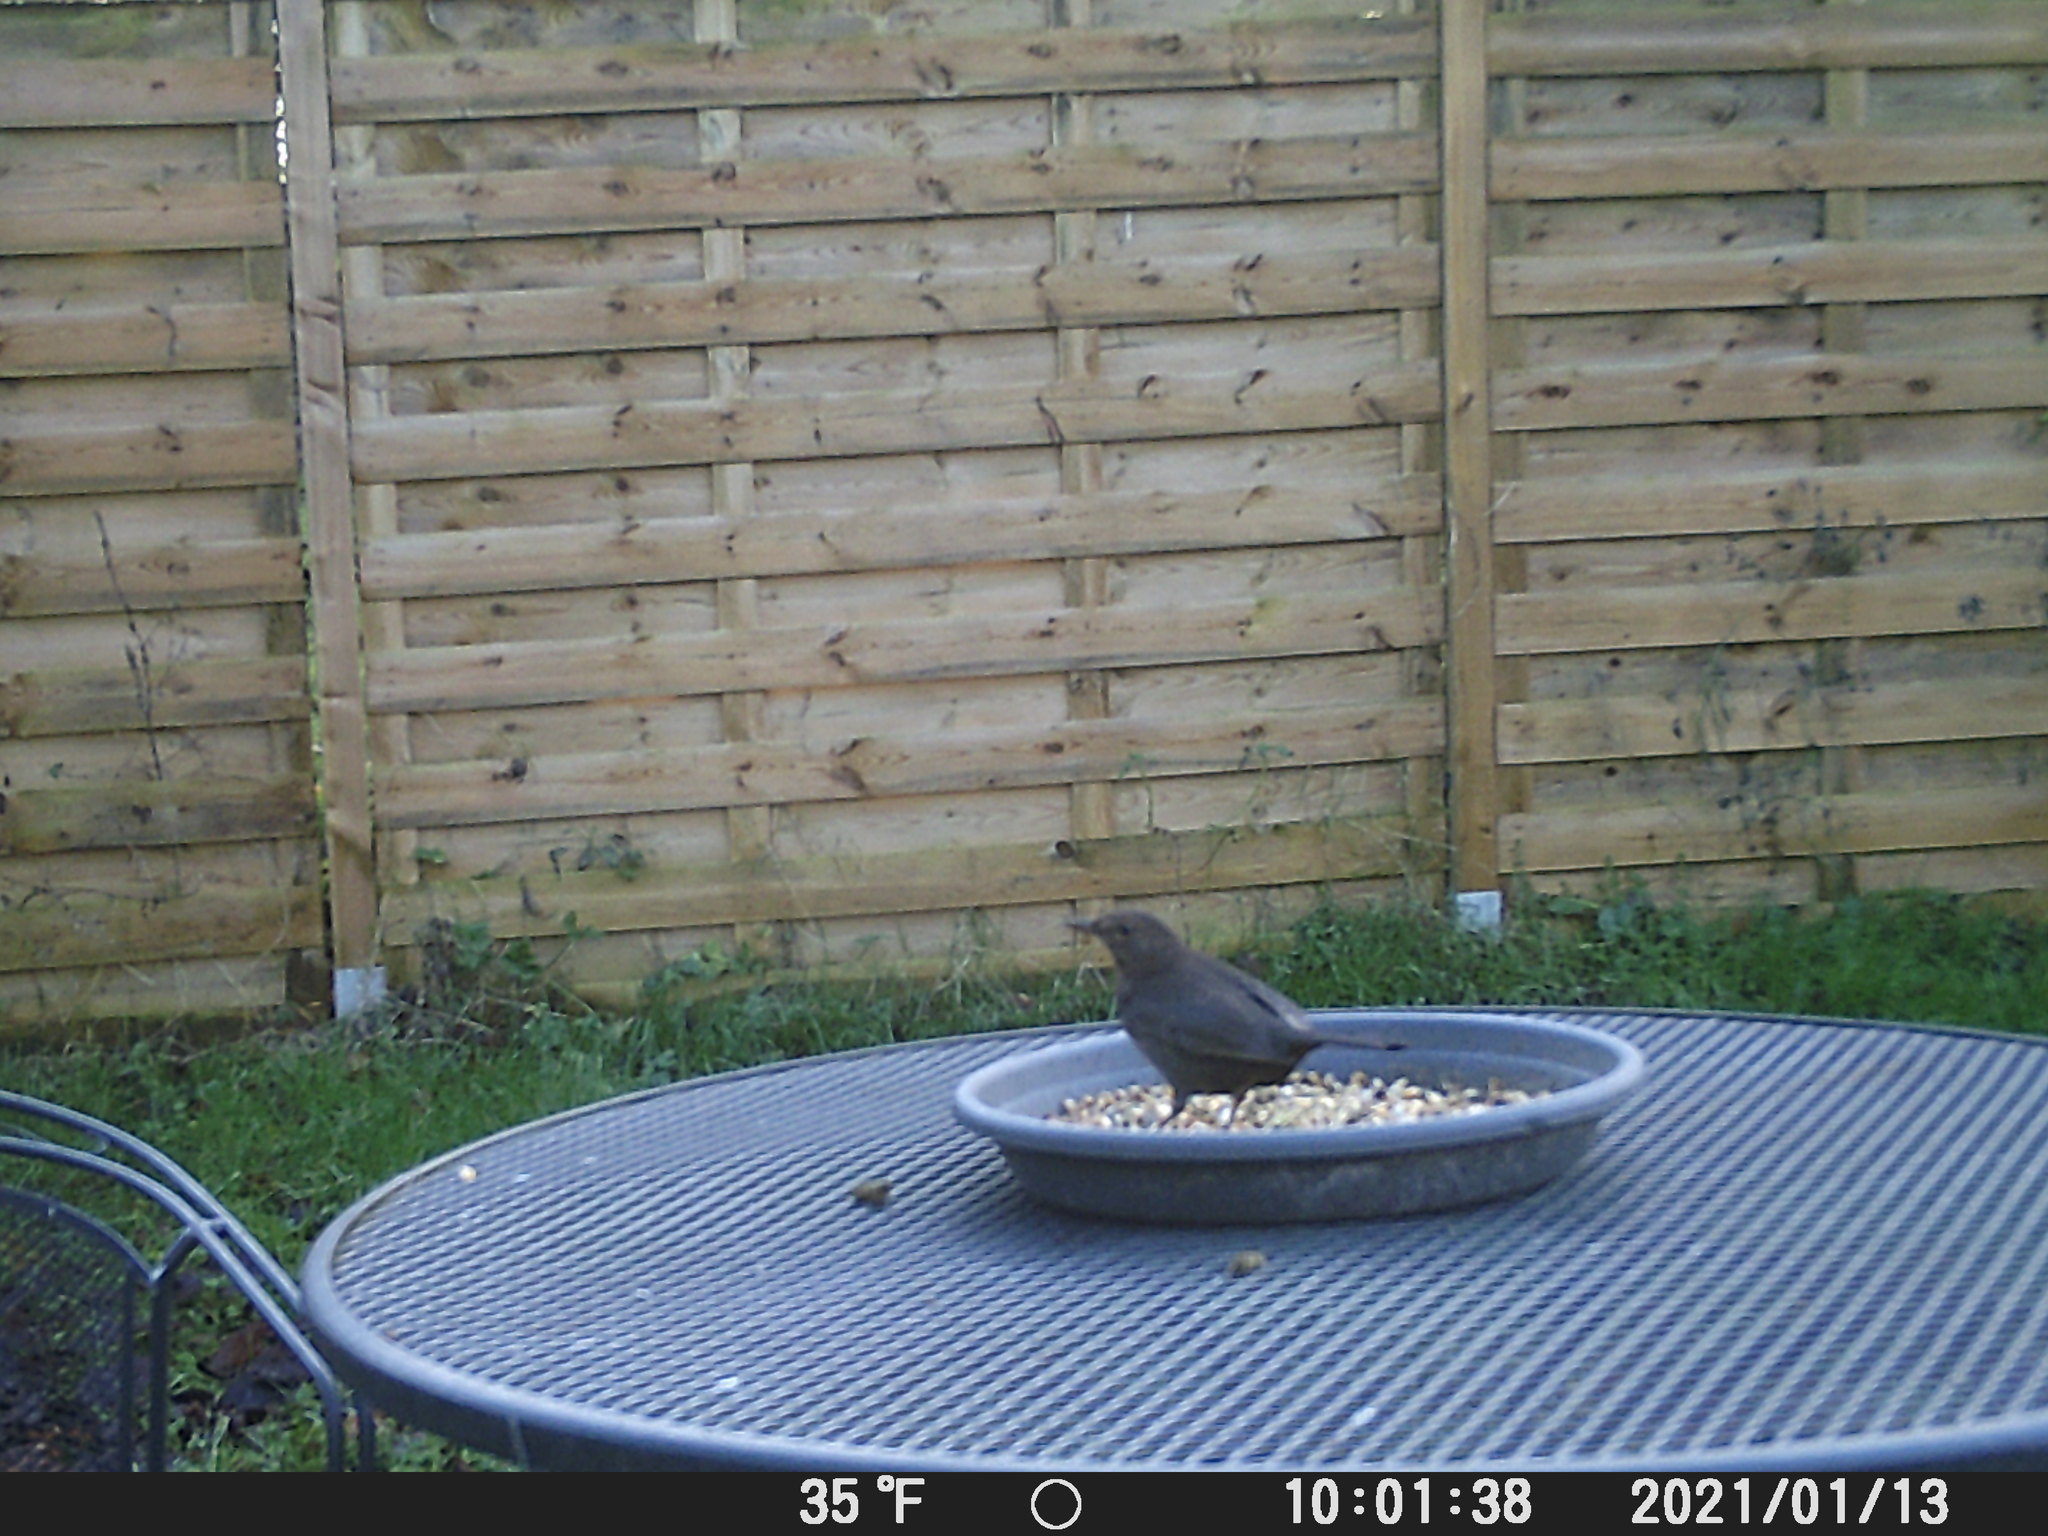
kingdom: Animalia
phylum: Chordata
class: Aves
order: Passeriformes
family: Turdidae
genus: Turdus
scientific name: Turdus merula
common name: Common blackbird
